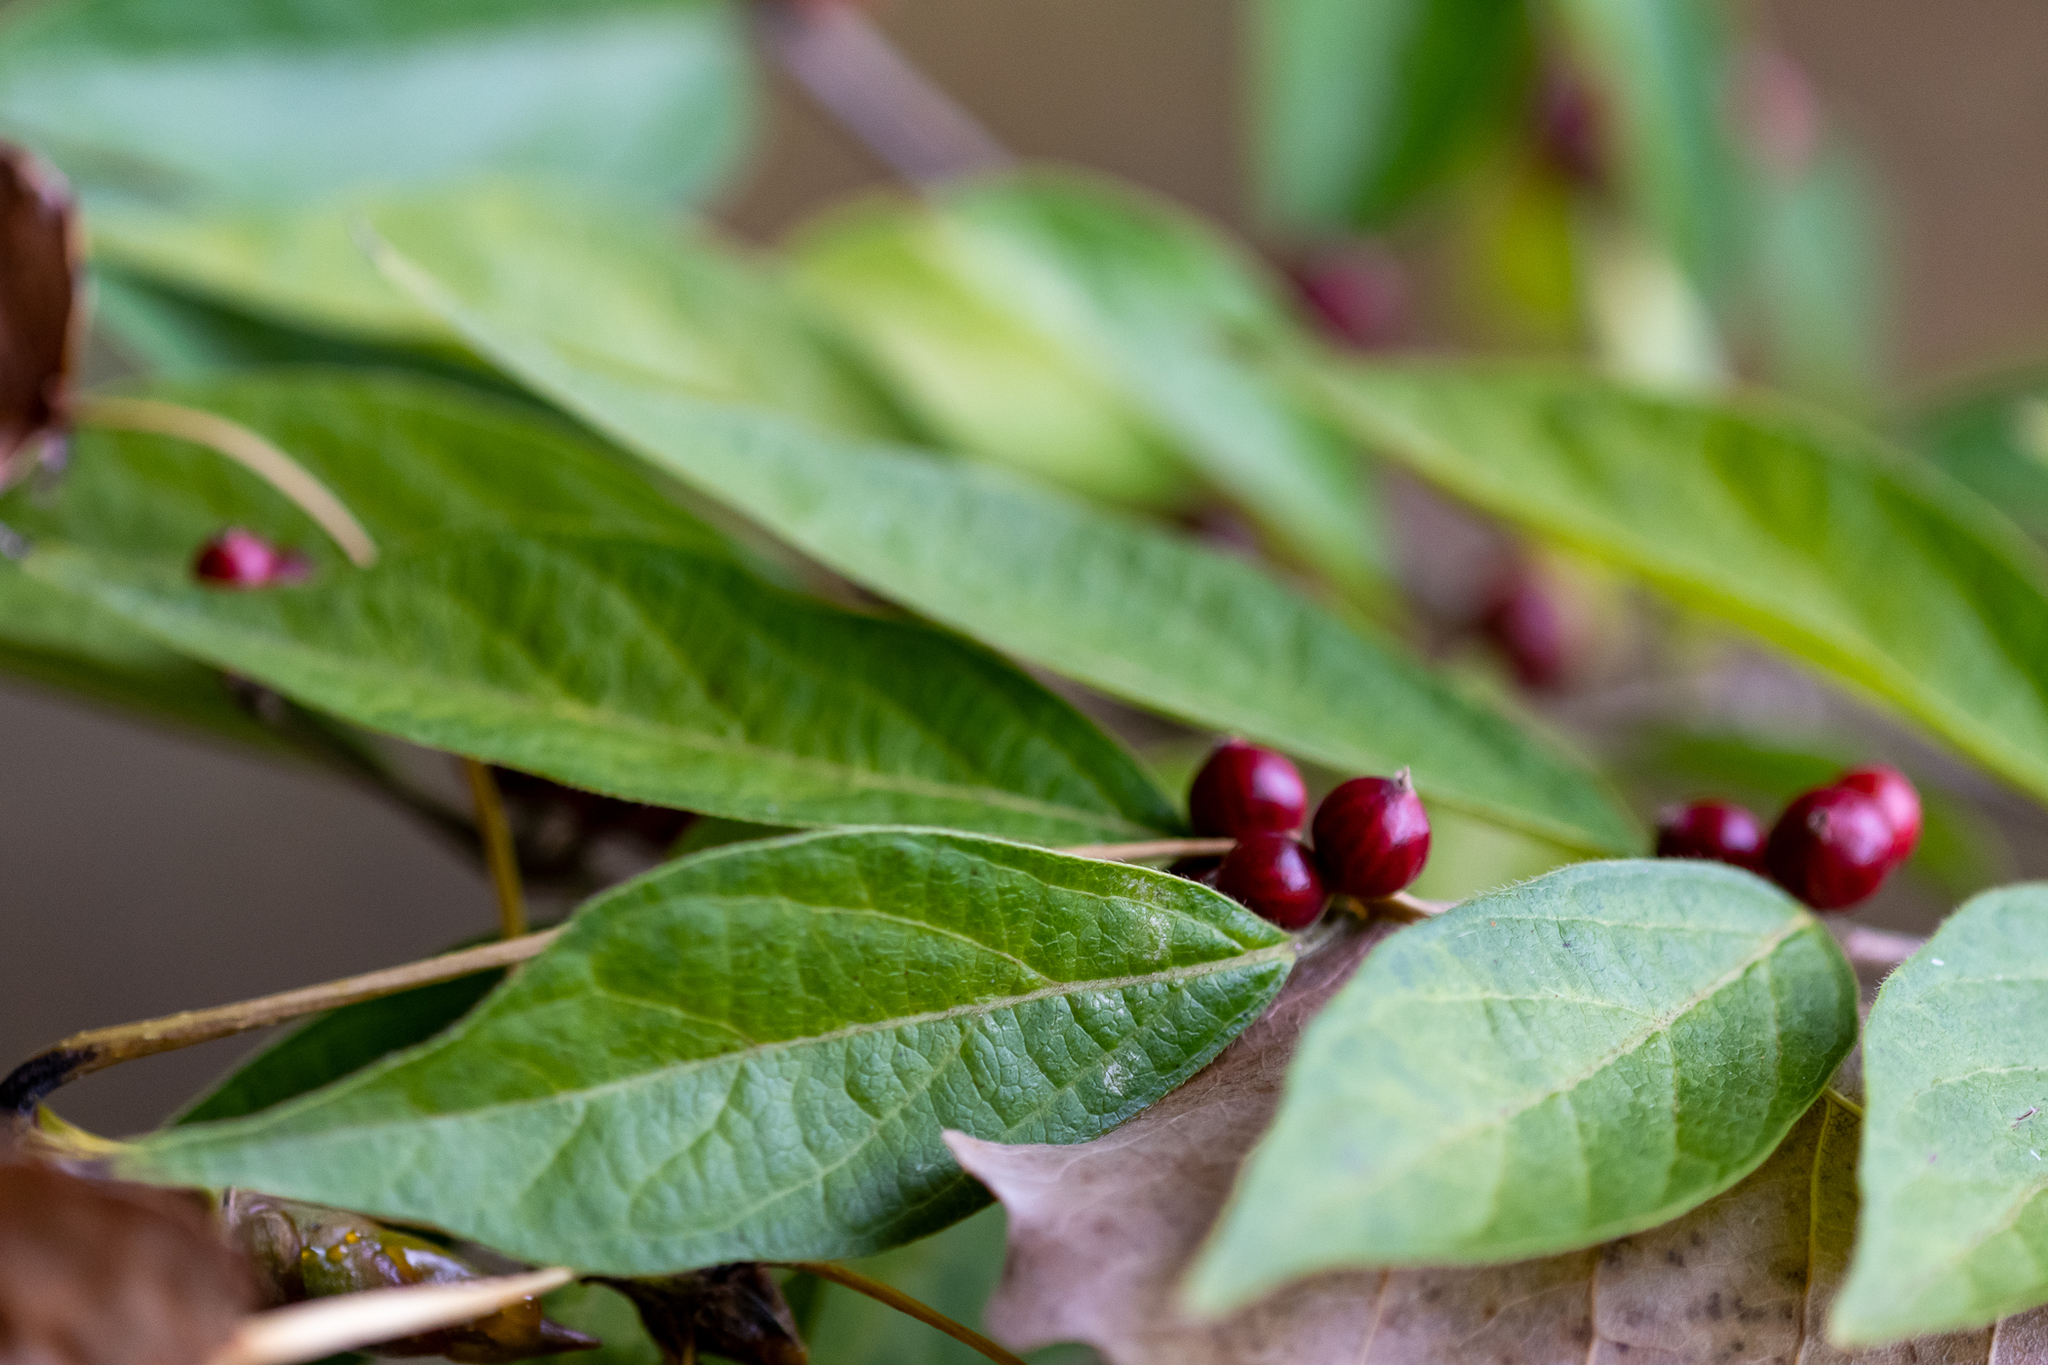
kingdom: Plantae
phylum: Tracheophyta
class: Magnoliopsida
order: Dipsacales
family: Caprifoliaceae
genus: Lonicera
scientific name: Lonicera maackii
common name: Amur honeysuckle
